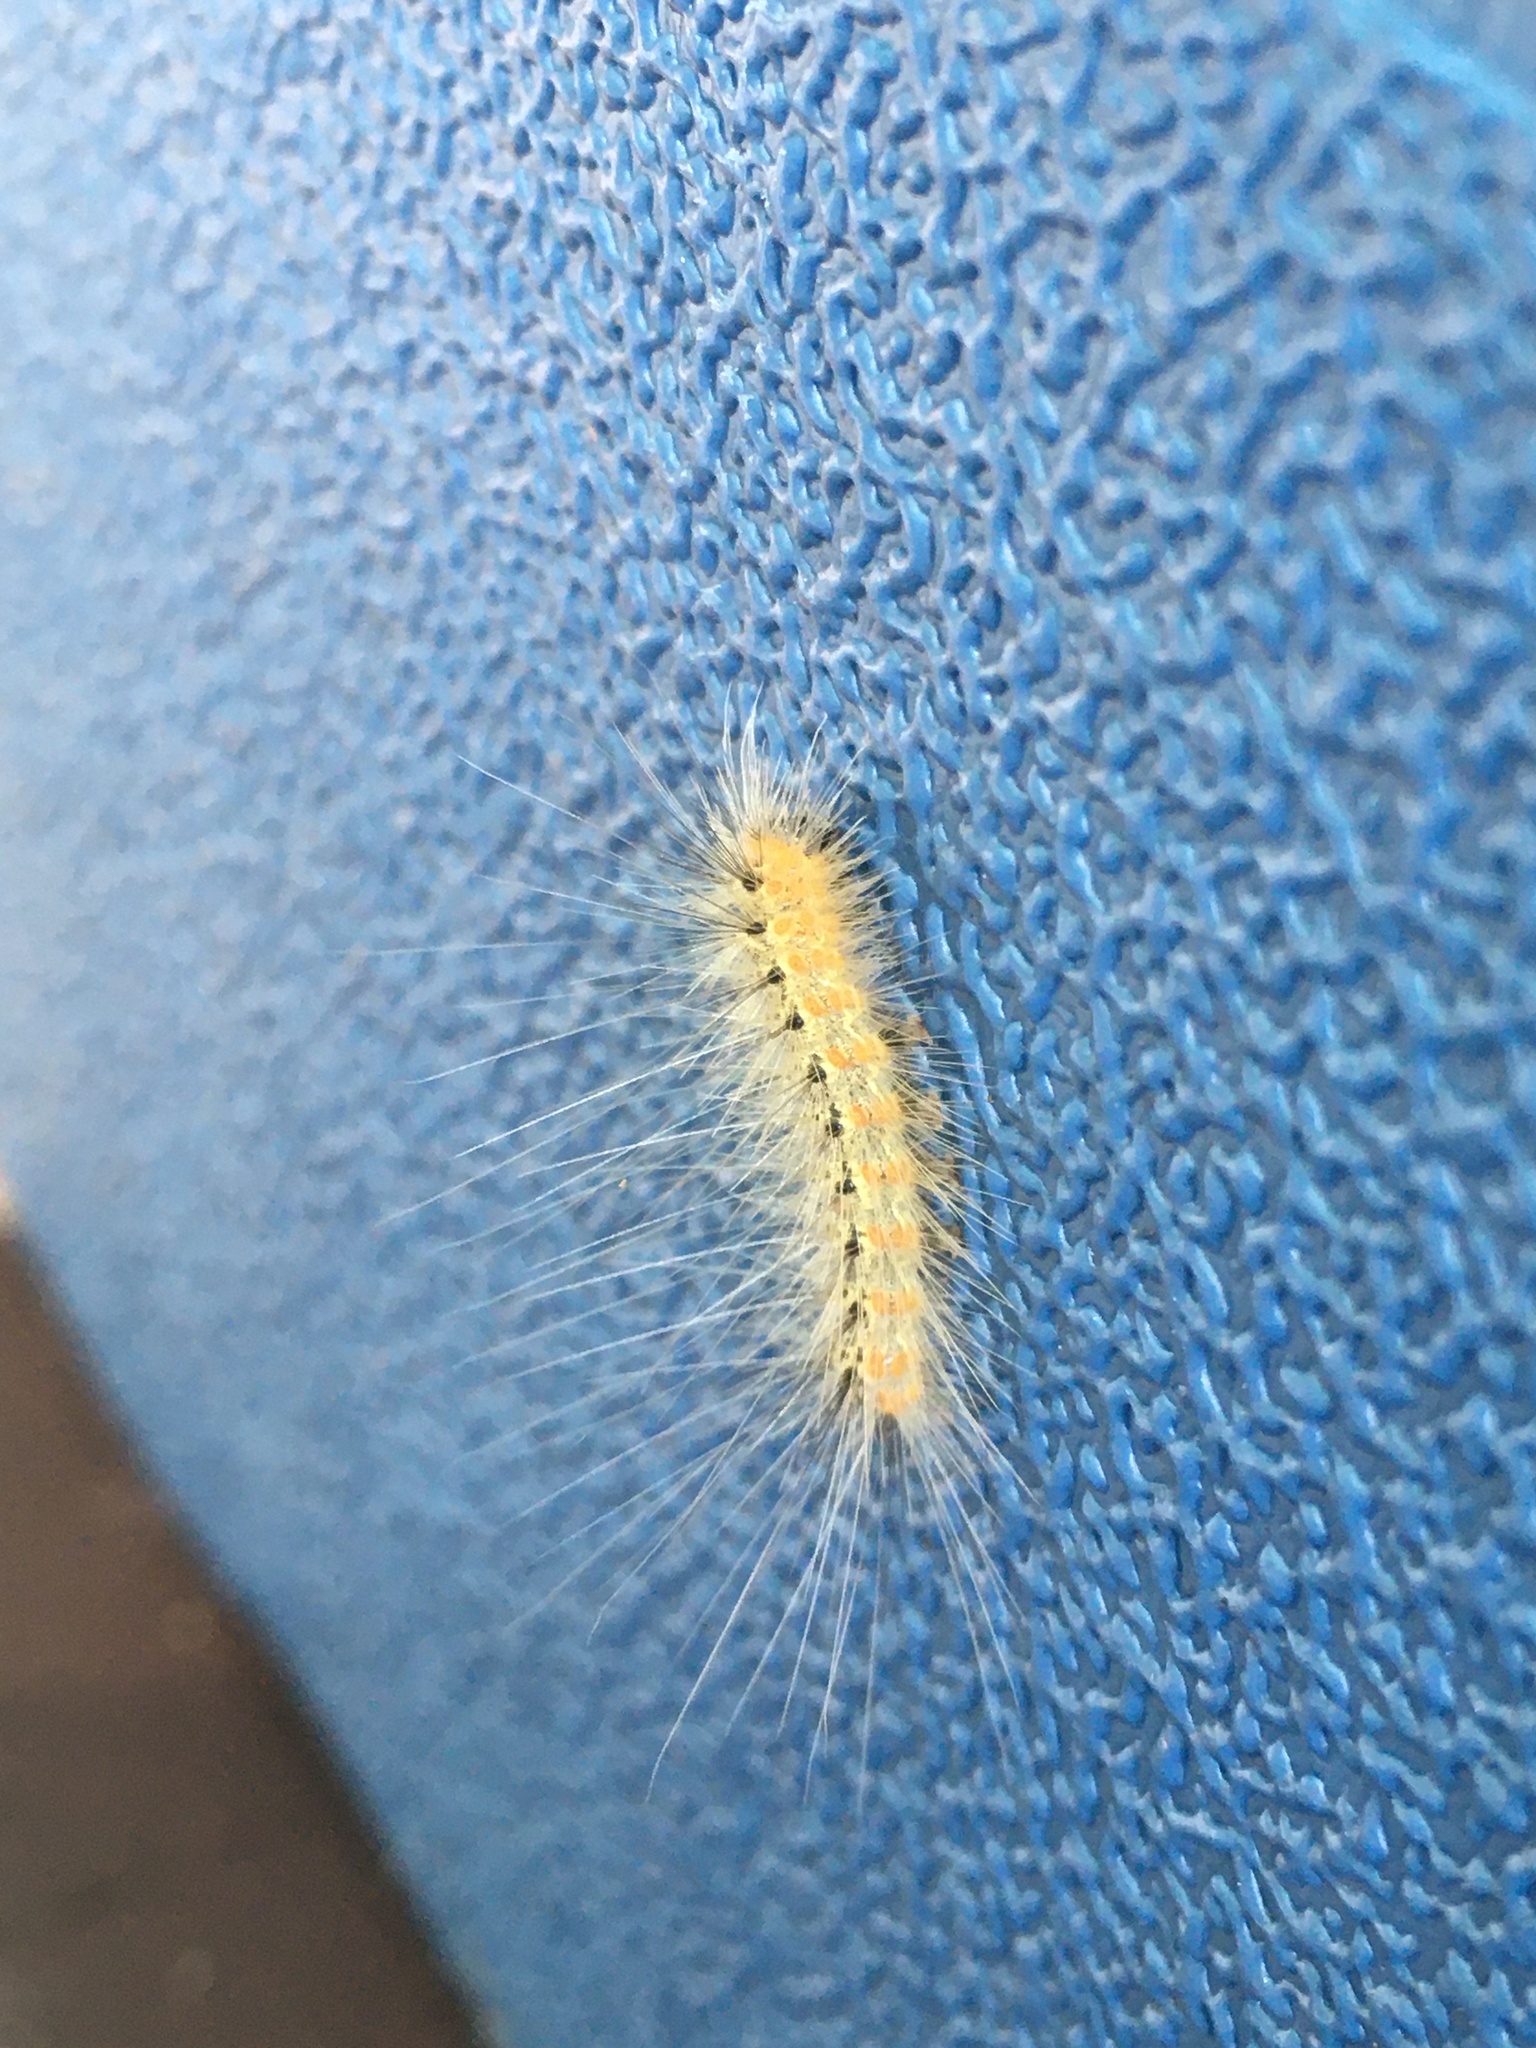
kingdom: Animalia
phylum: Arthropoda
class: Insecta
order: Lepidoptera
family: Erebidae
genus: Hyphantria
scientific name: Hyphantria cunea
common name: American white moth
